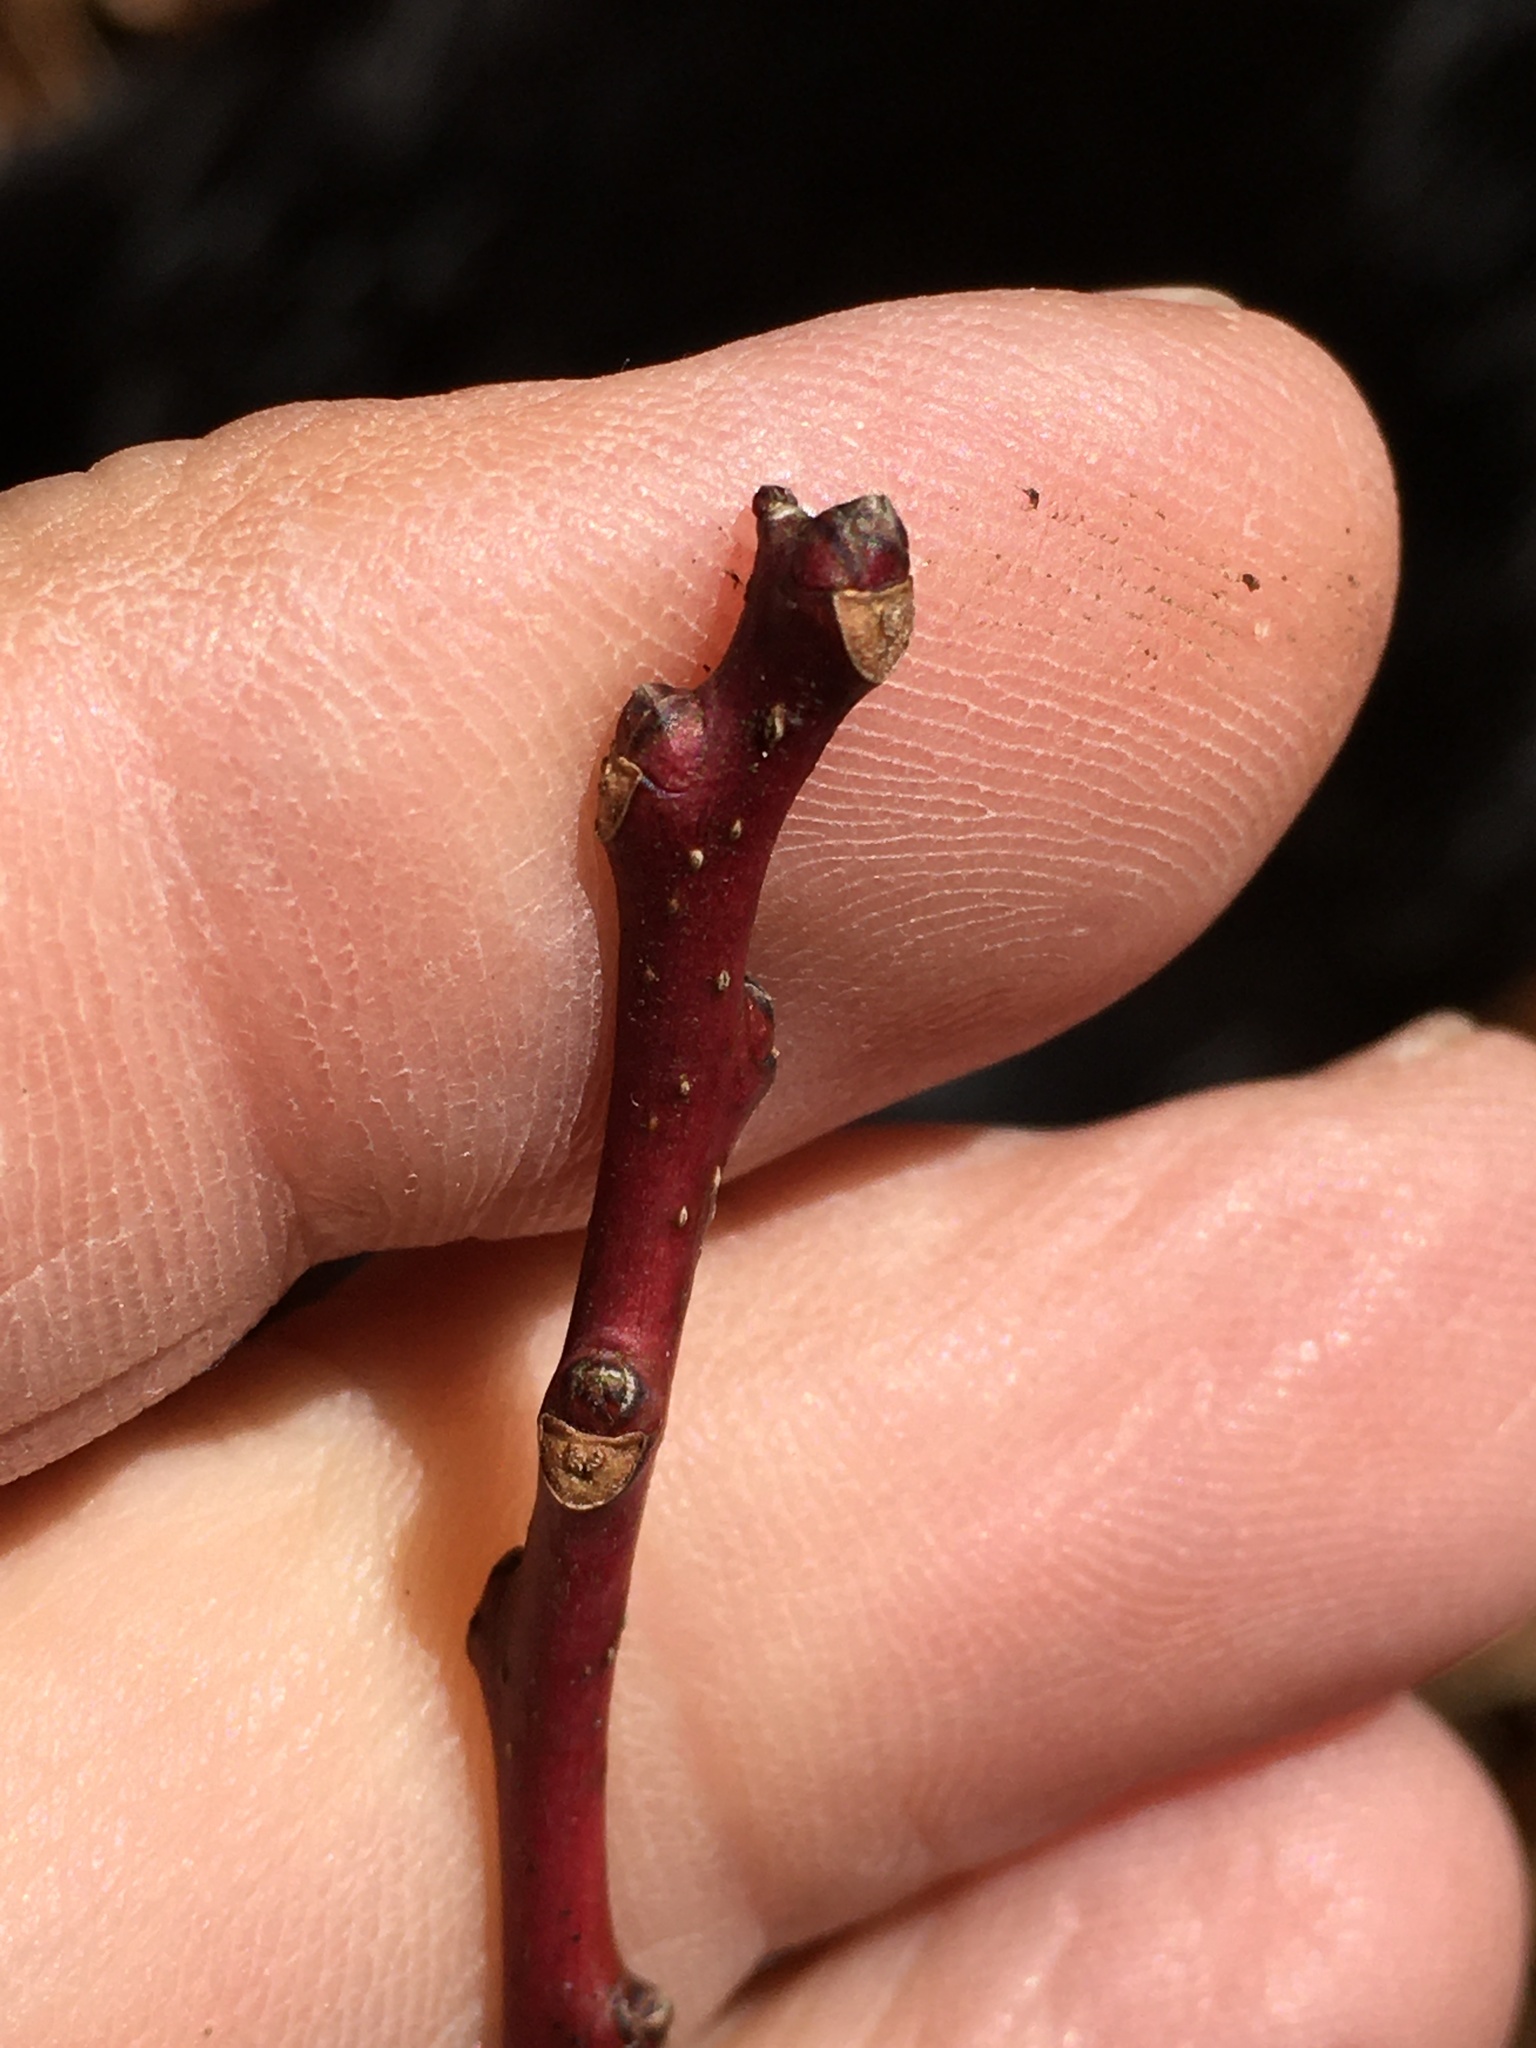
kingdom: Plantae
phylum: Tracheophyta
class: Magnoliopsida
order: Ericales
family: Ericaceae
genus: Oxydendrum
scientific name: Oxydendrum arboreum
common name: Sourwood
